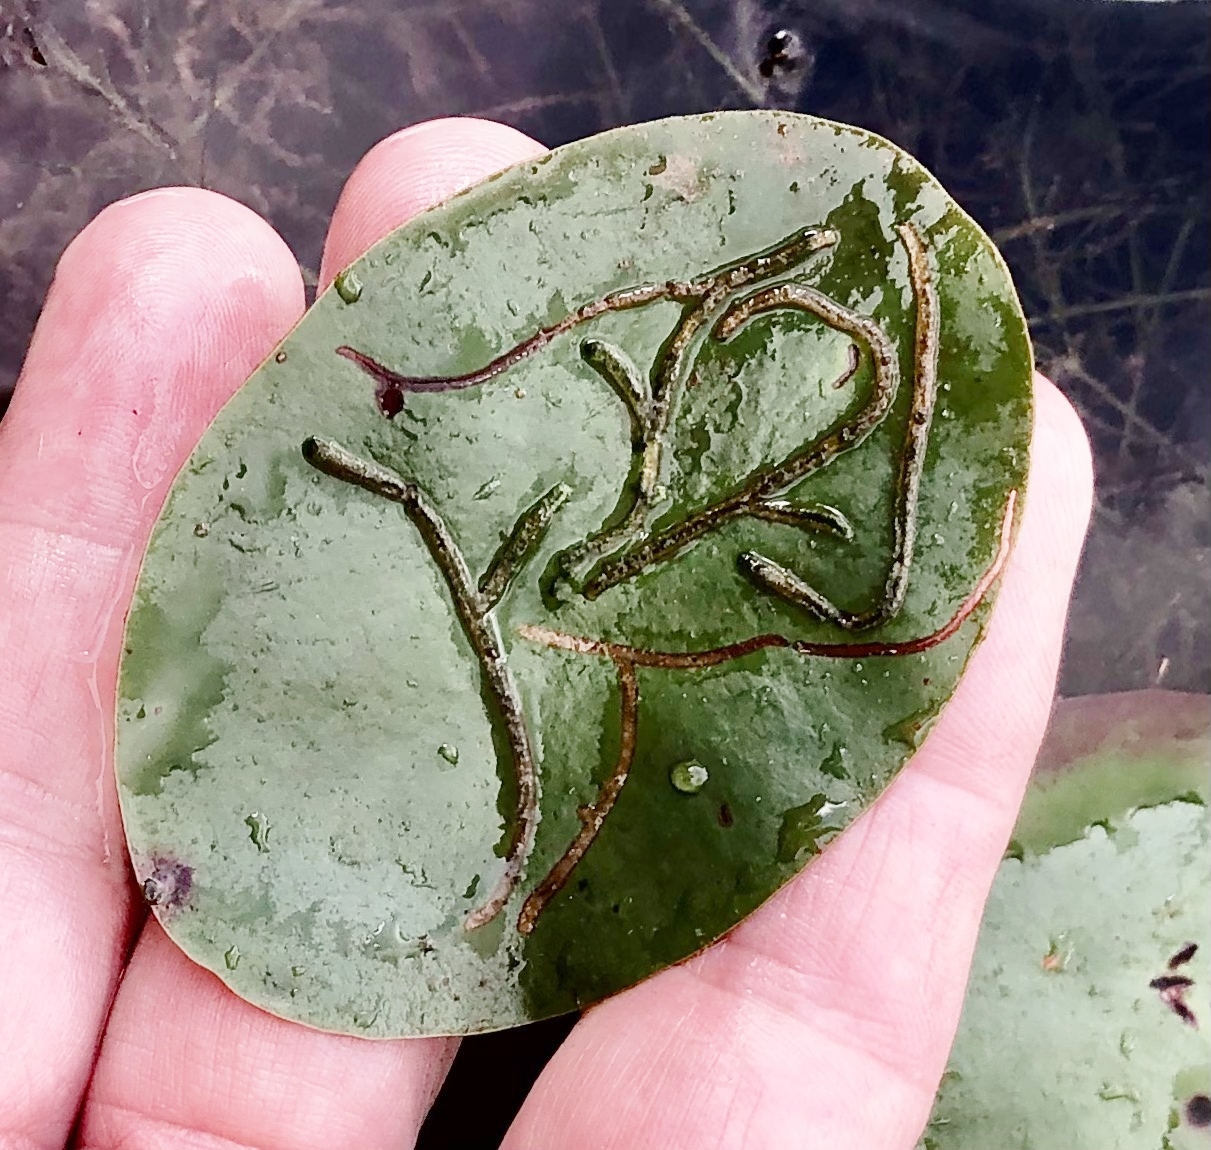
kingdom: Animalia
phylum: Arthropoda
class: Insecta
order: Diptera
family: Chironomidae
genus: Polypedilum
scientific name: Polypedilum braseniae
